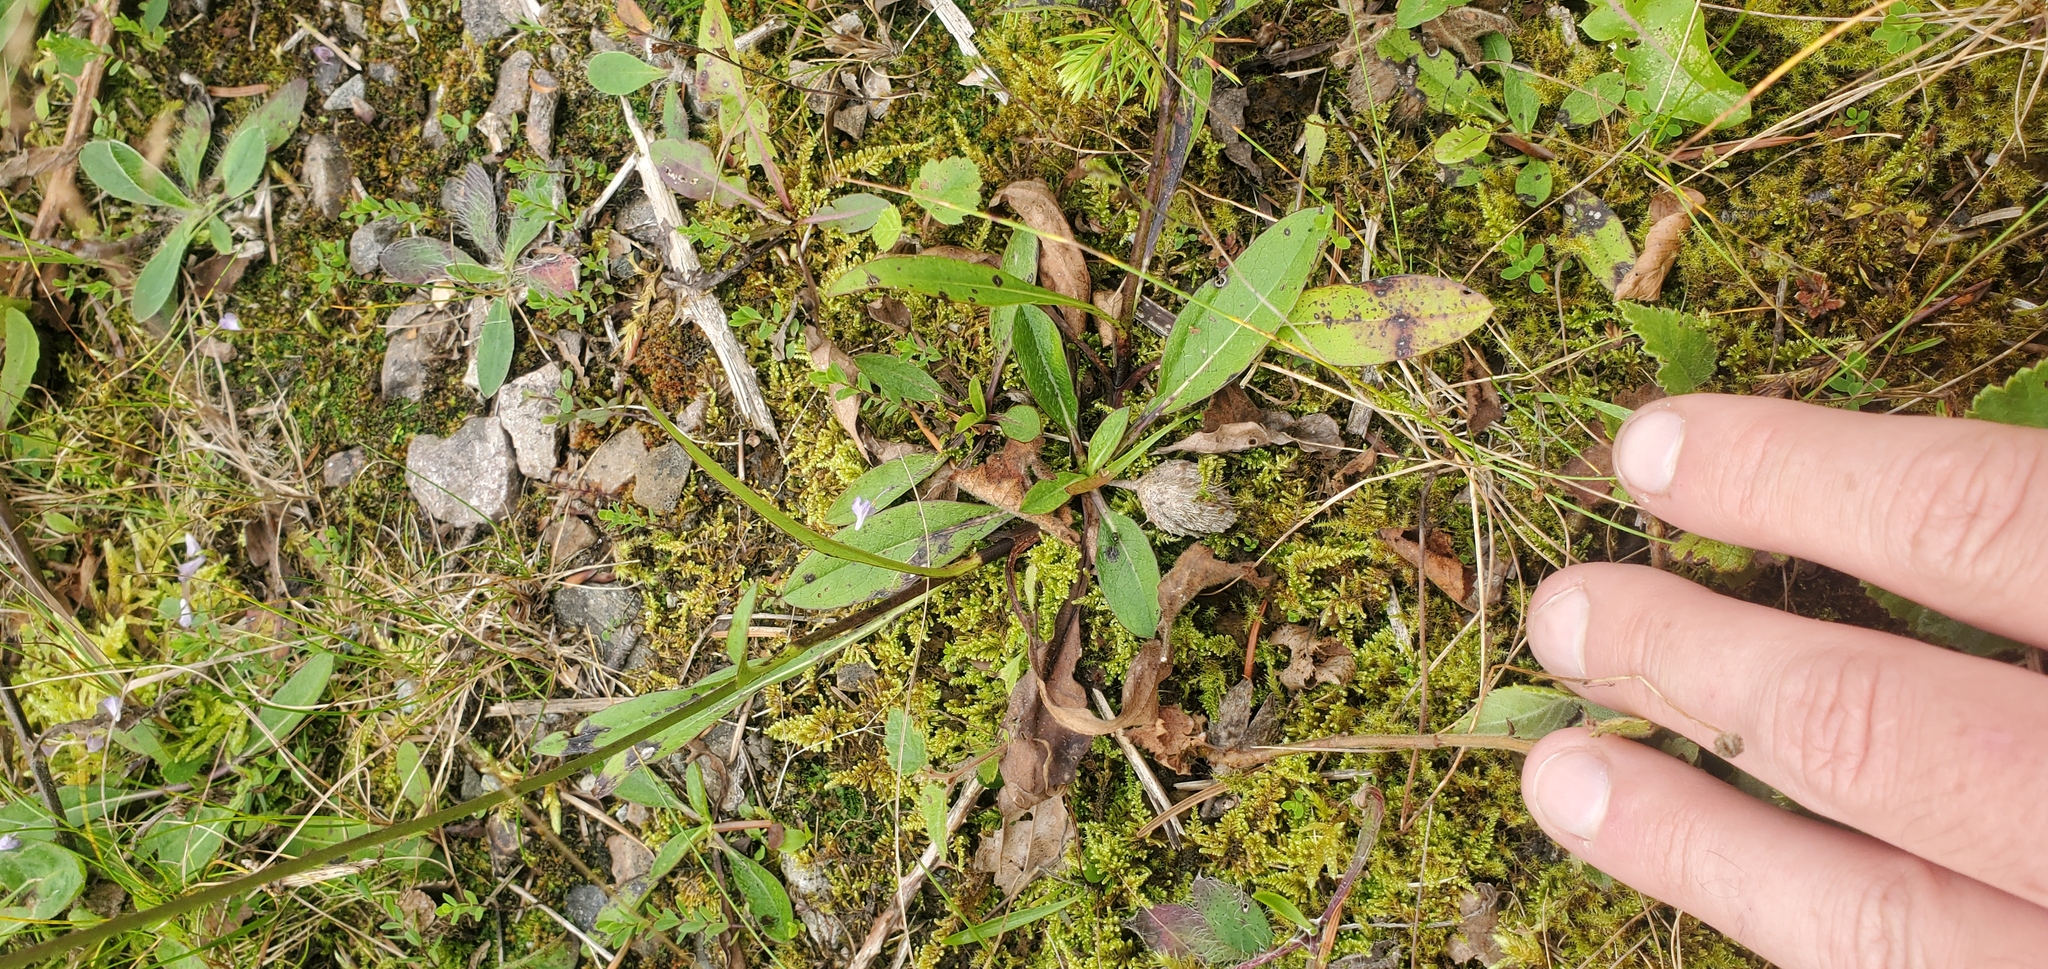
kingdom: Plantae
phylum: Tracheophyta
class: Magnoliopsida
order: Dipsacales
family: Caprifoliaceae
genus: Succisa
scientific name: Succisa pratensis
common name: Devil's-bit
